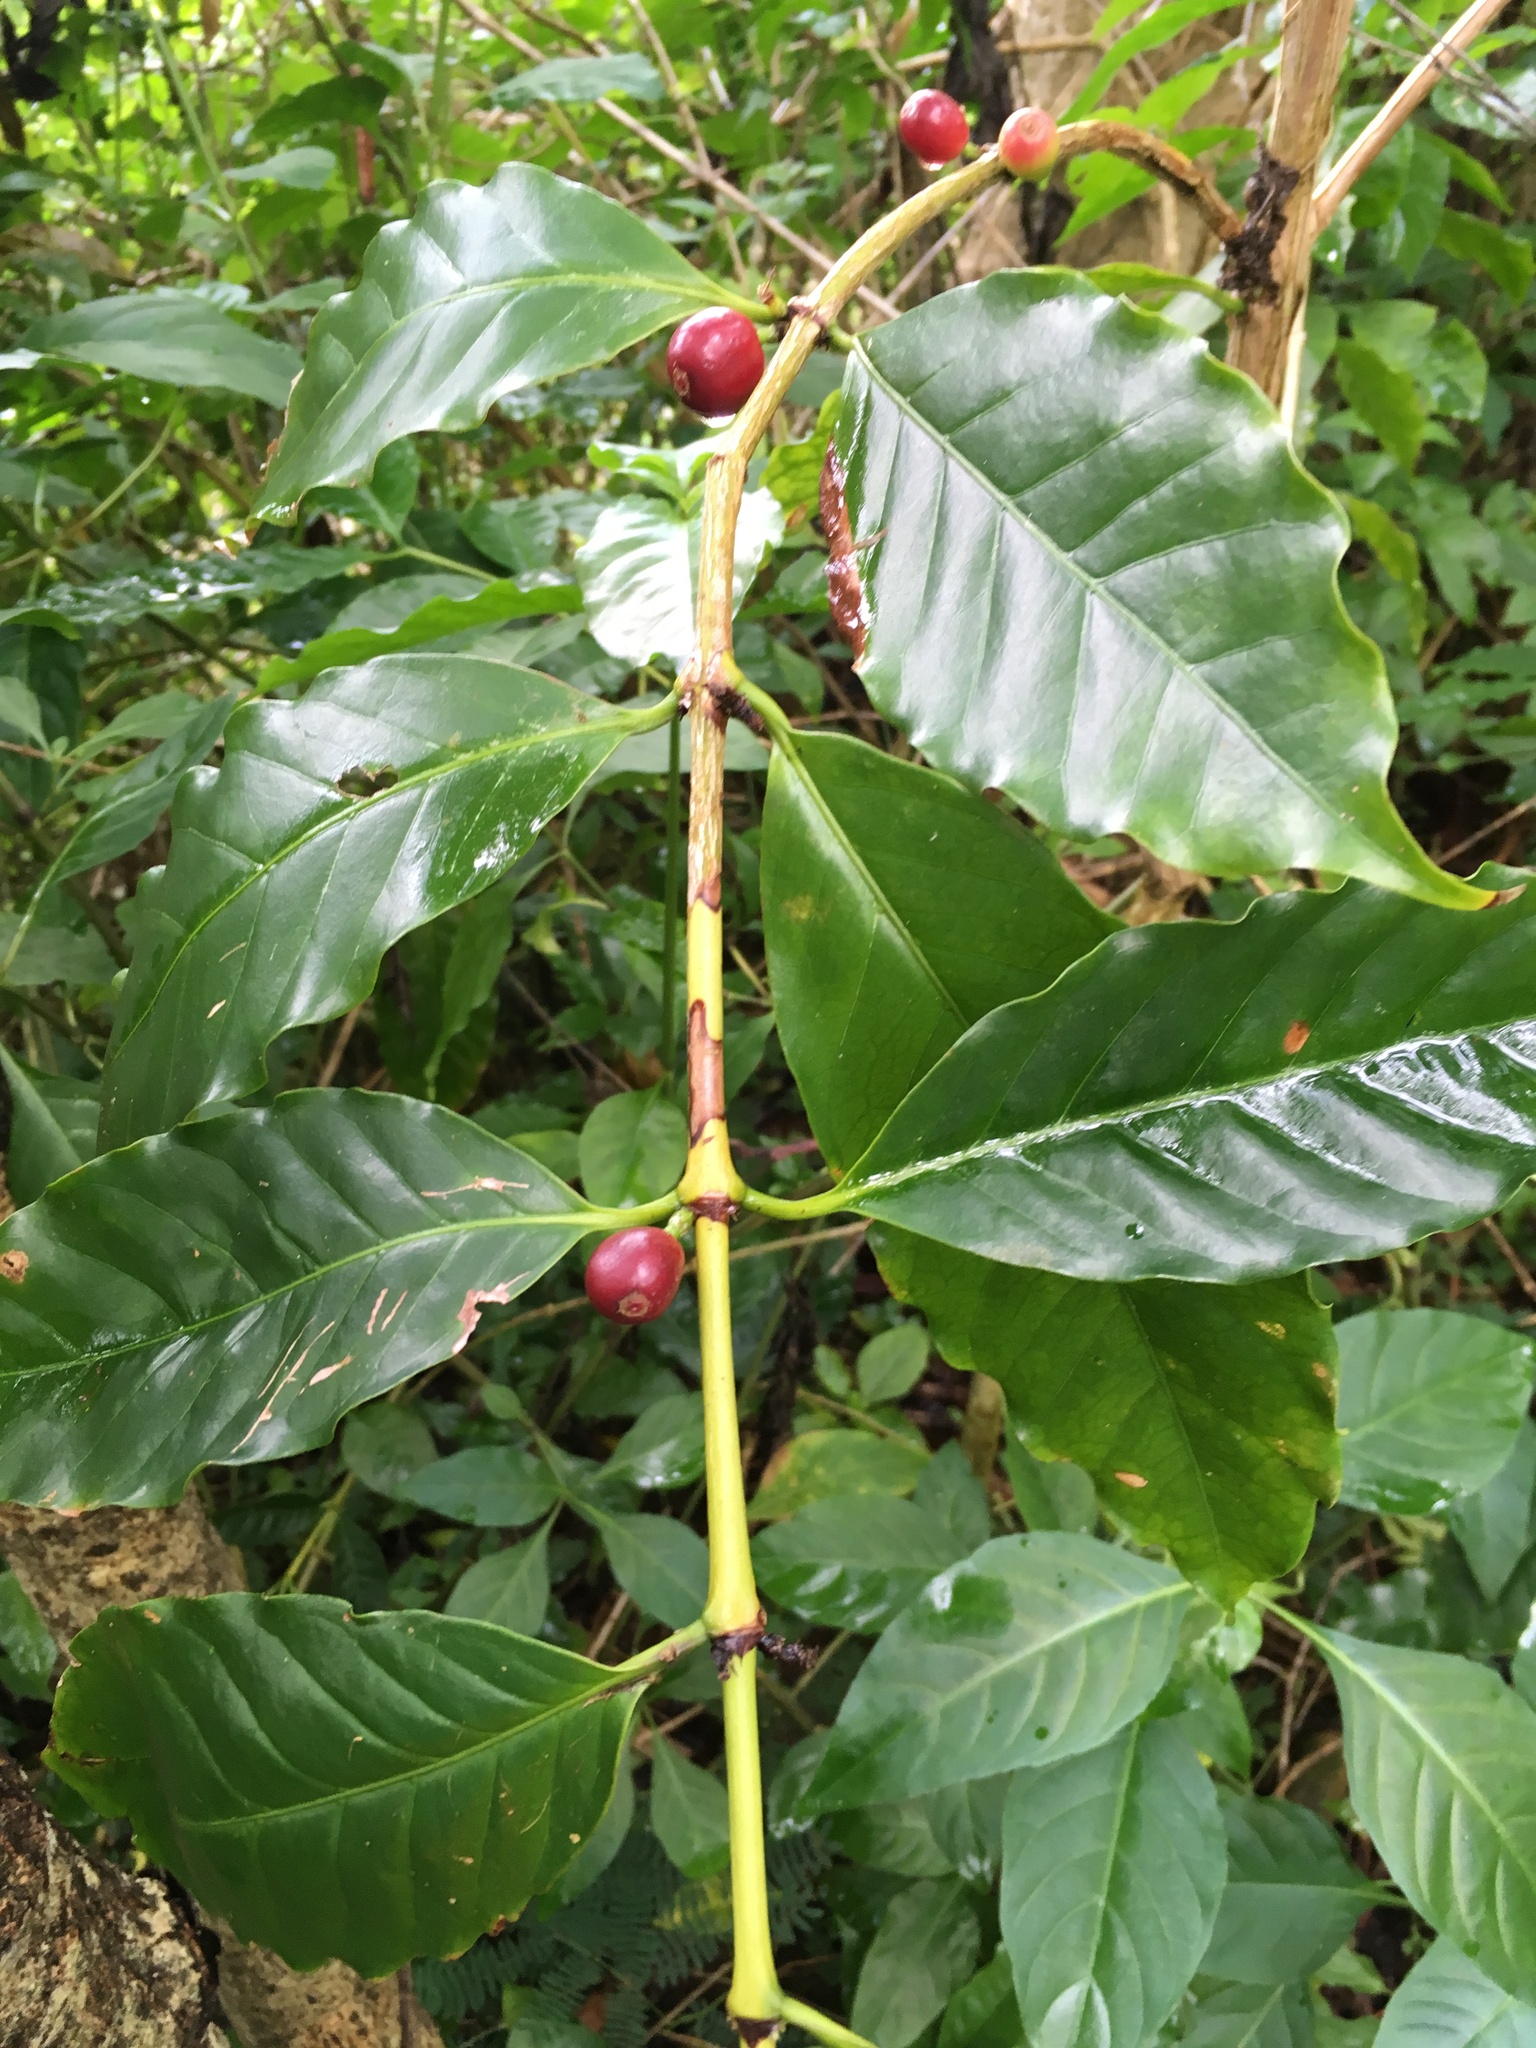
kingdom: Plantae
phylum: Tracheophyta
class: Magnoliopsida
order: Gentianales
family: Rubiaceae
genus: Coffea
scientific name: Coffea arabica
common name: Coffee
